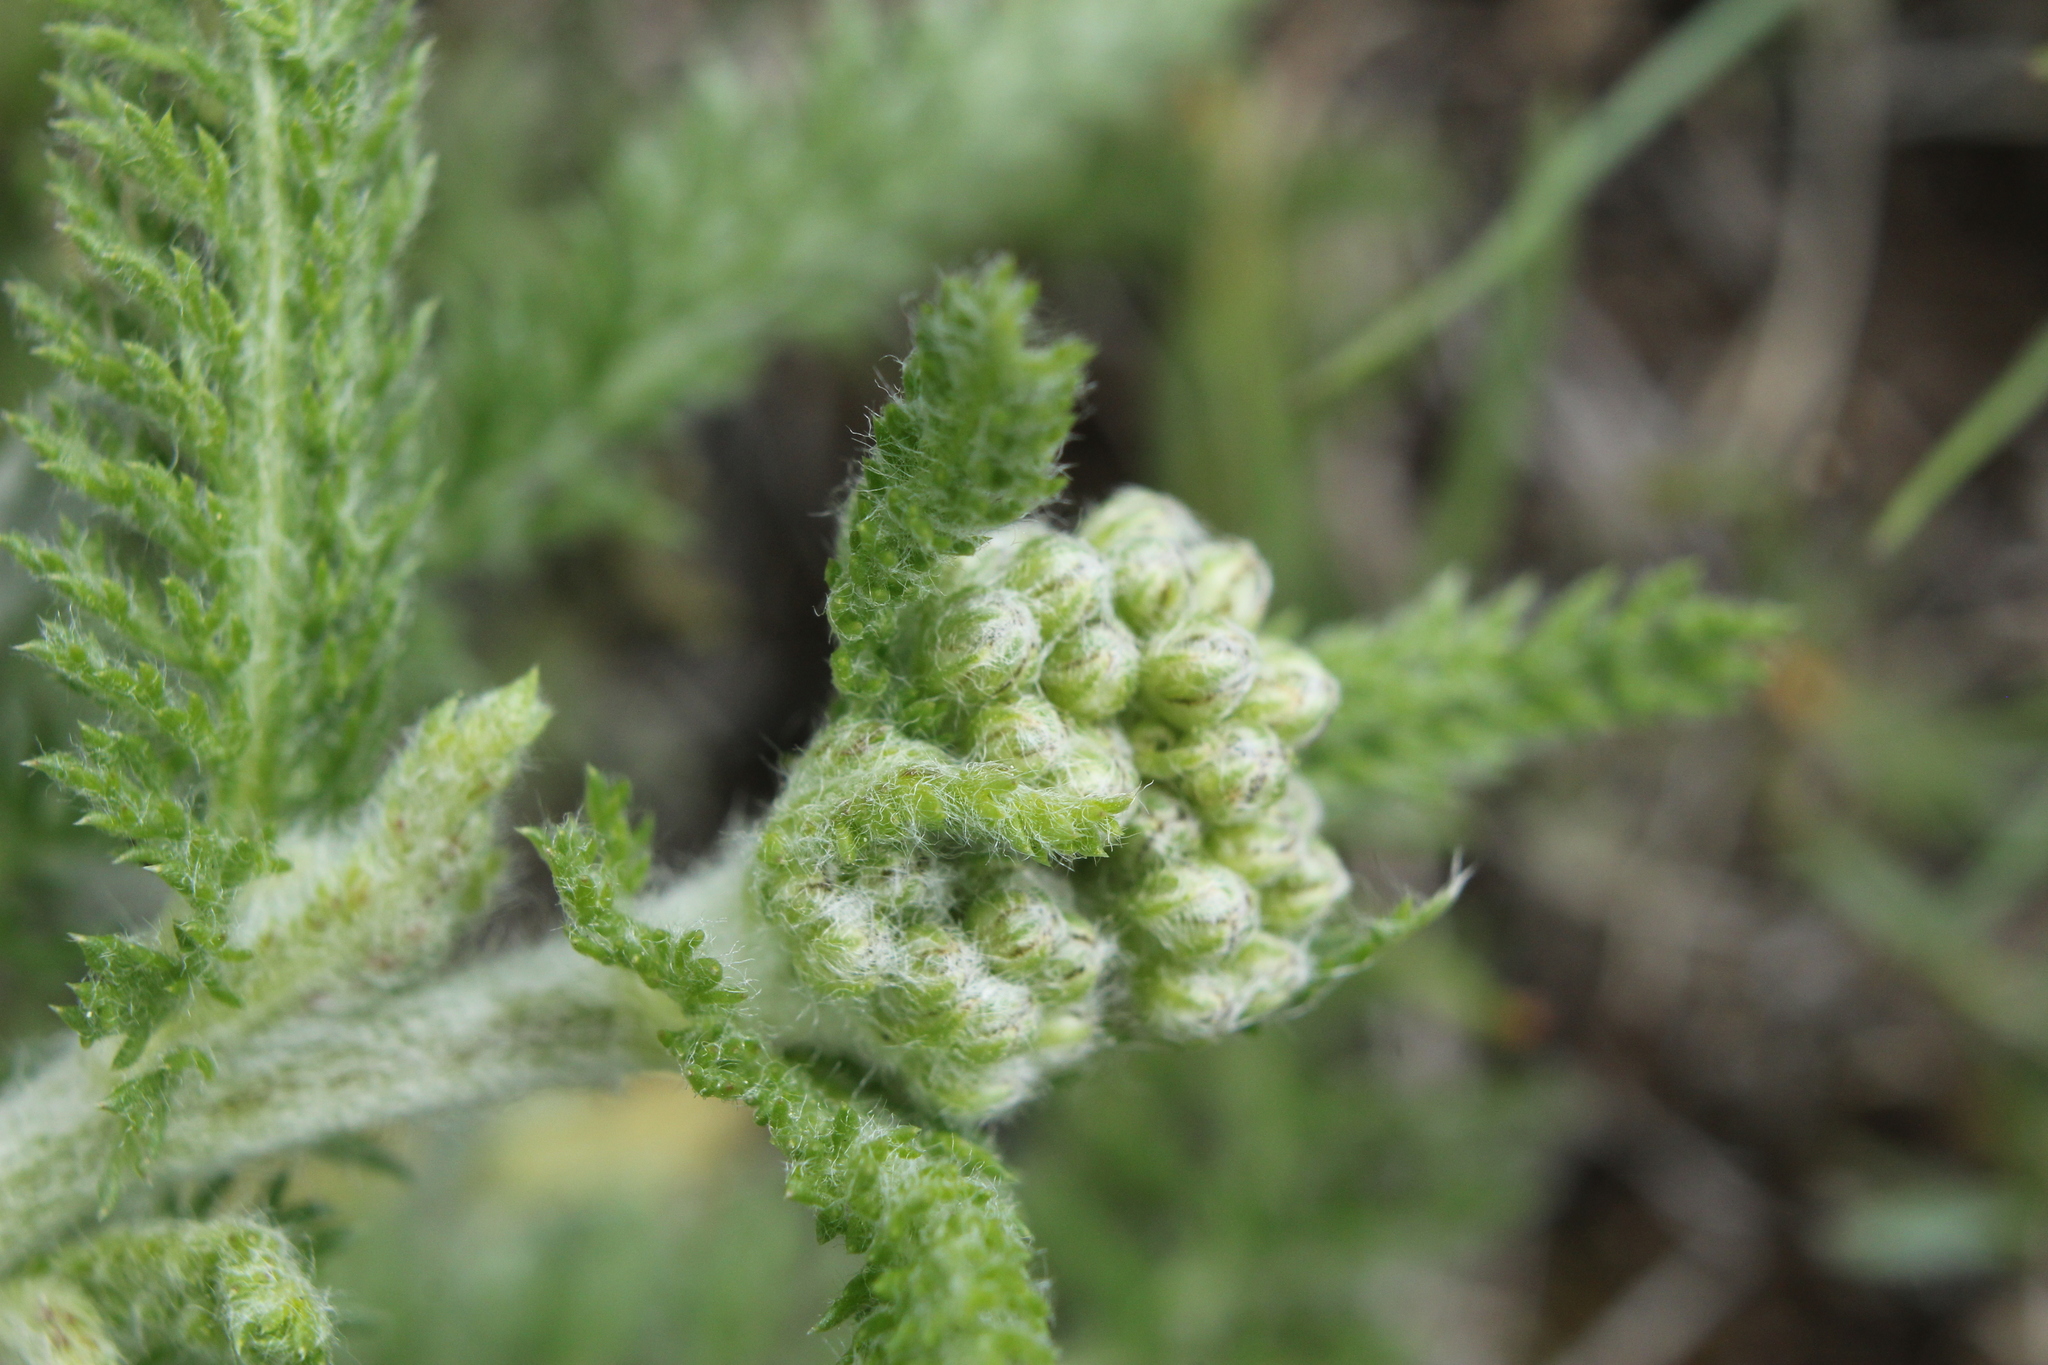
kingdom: Plantae
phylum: Tracheophyta
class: Magnoliopsida
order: Asterales
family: Asteraceae
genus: Achillea
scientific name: Achillea millefolium
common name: Yarrow
